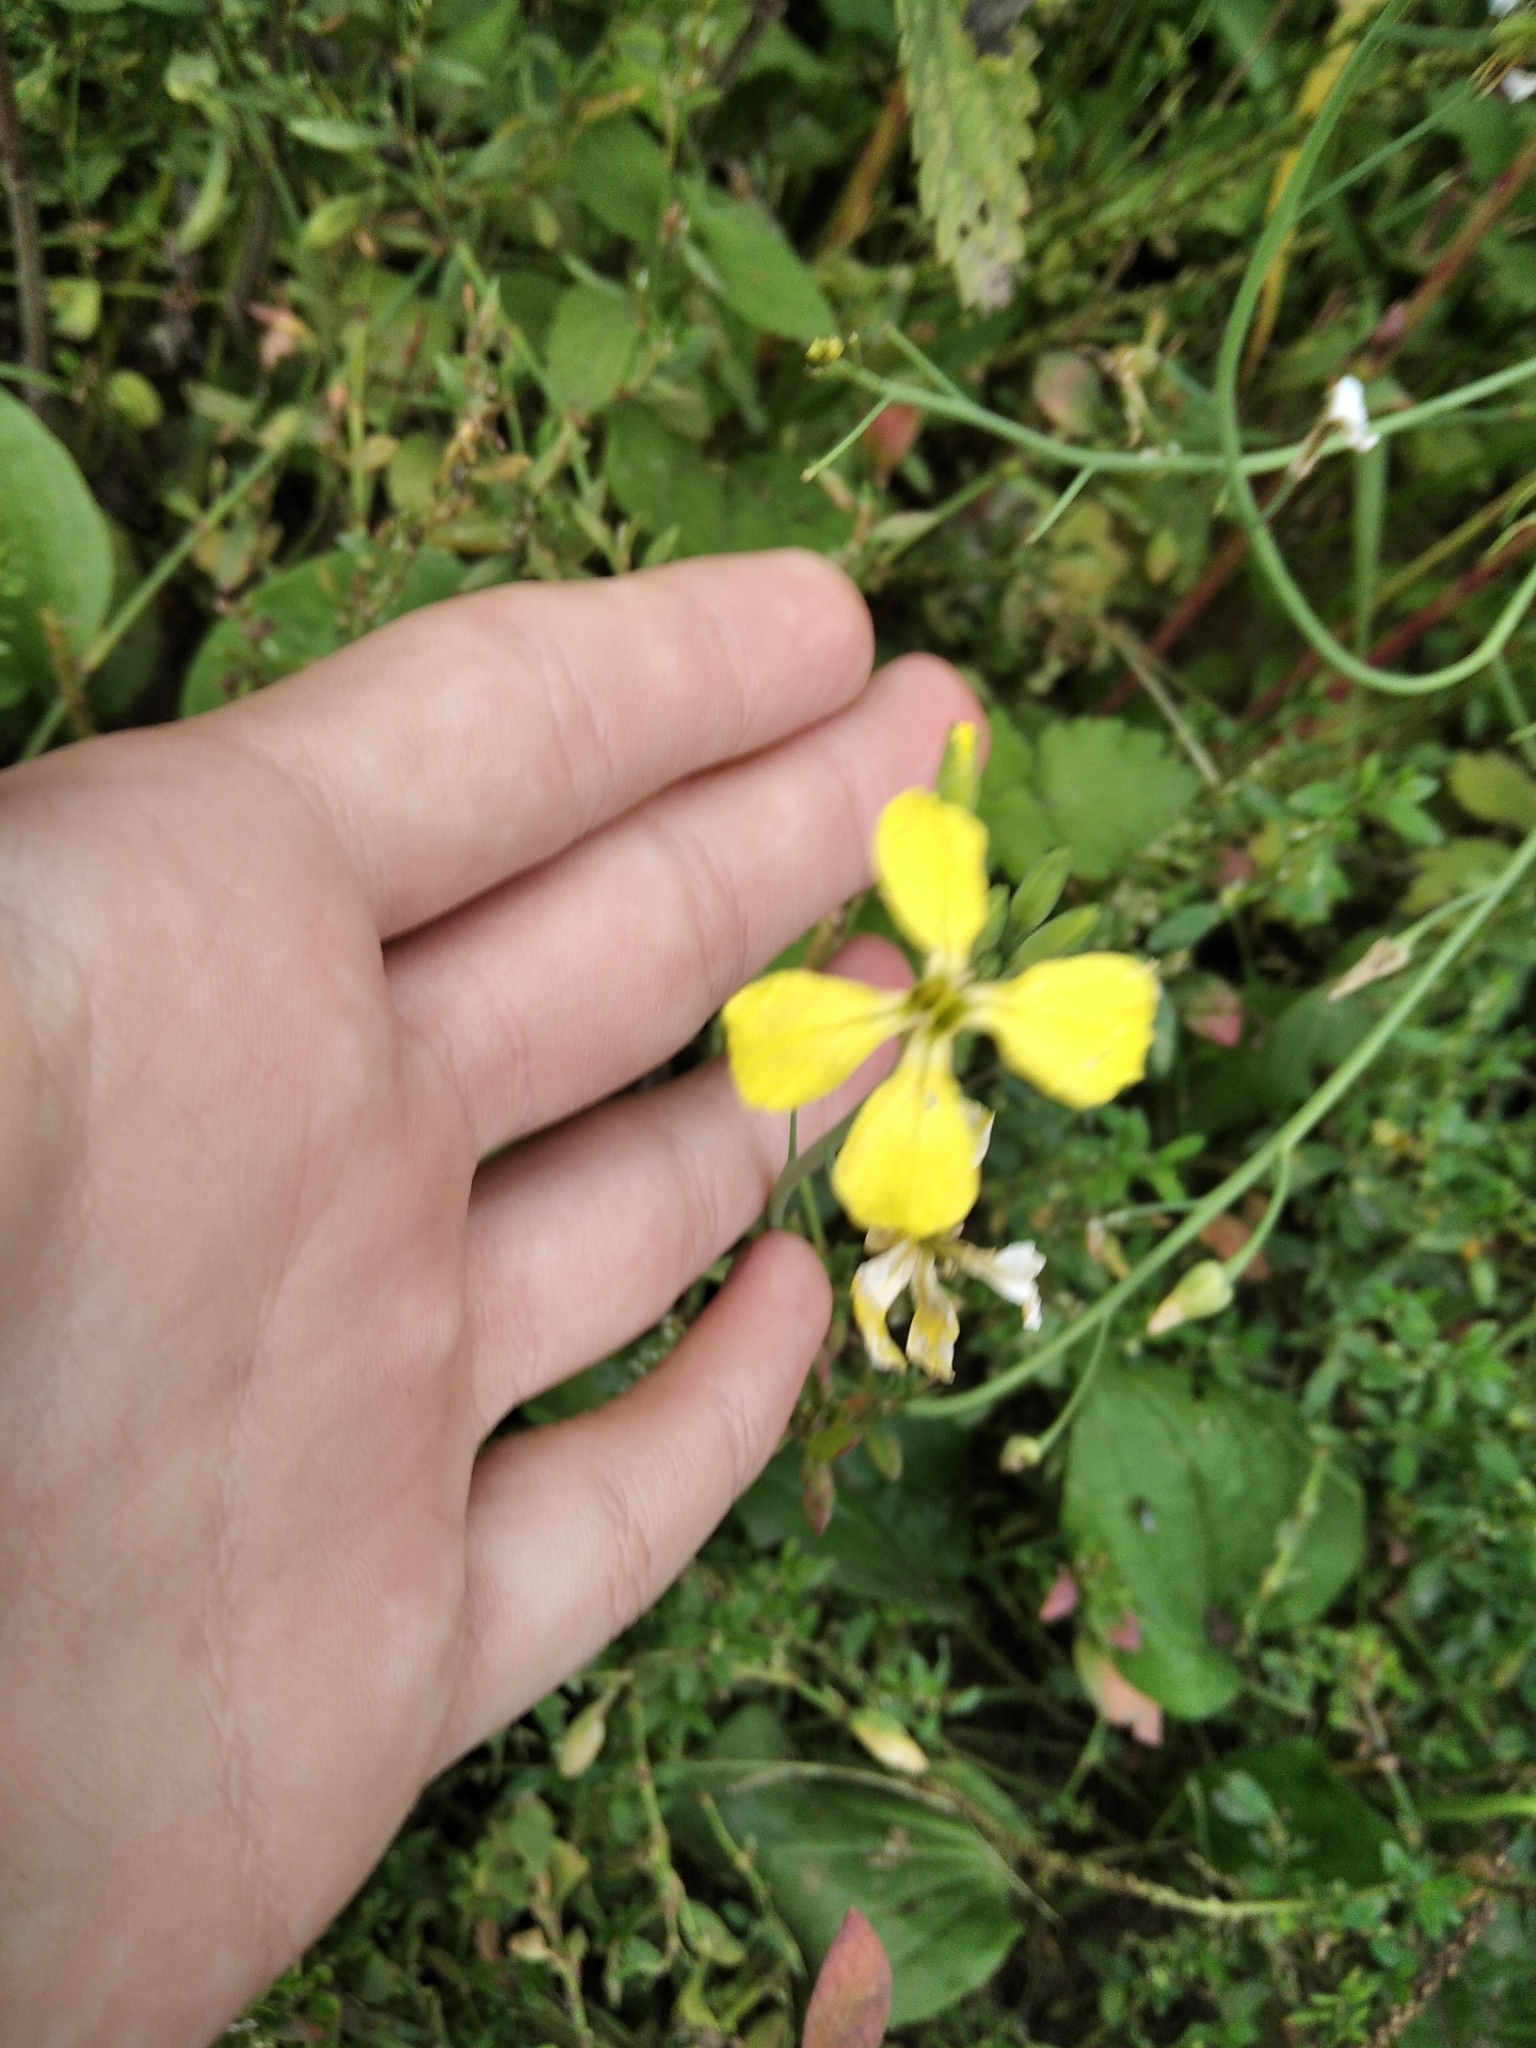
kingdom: Plantae
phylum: Tracheophyta
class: Magnoliopsida
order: Brassicales
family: Brassicaceae
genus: Raphanus
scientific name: Raphanus raphanistrum
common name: Wild radish
